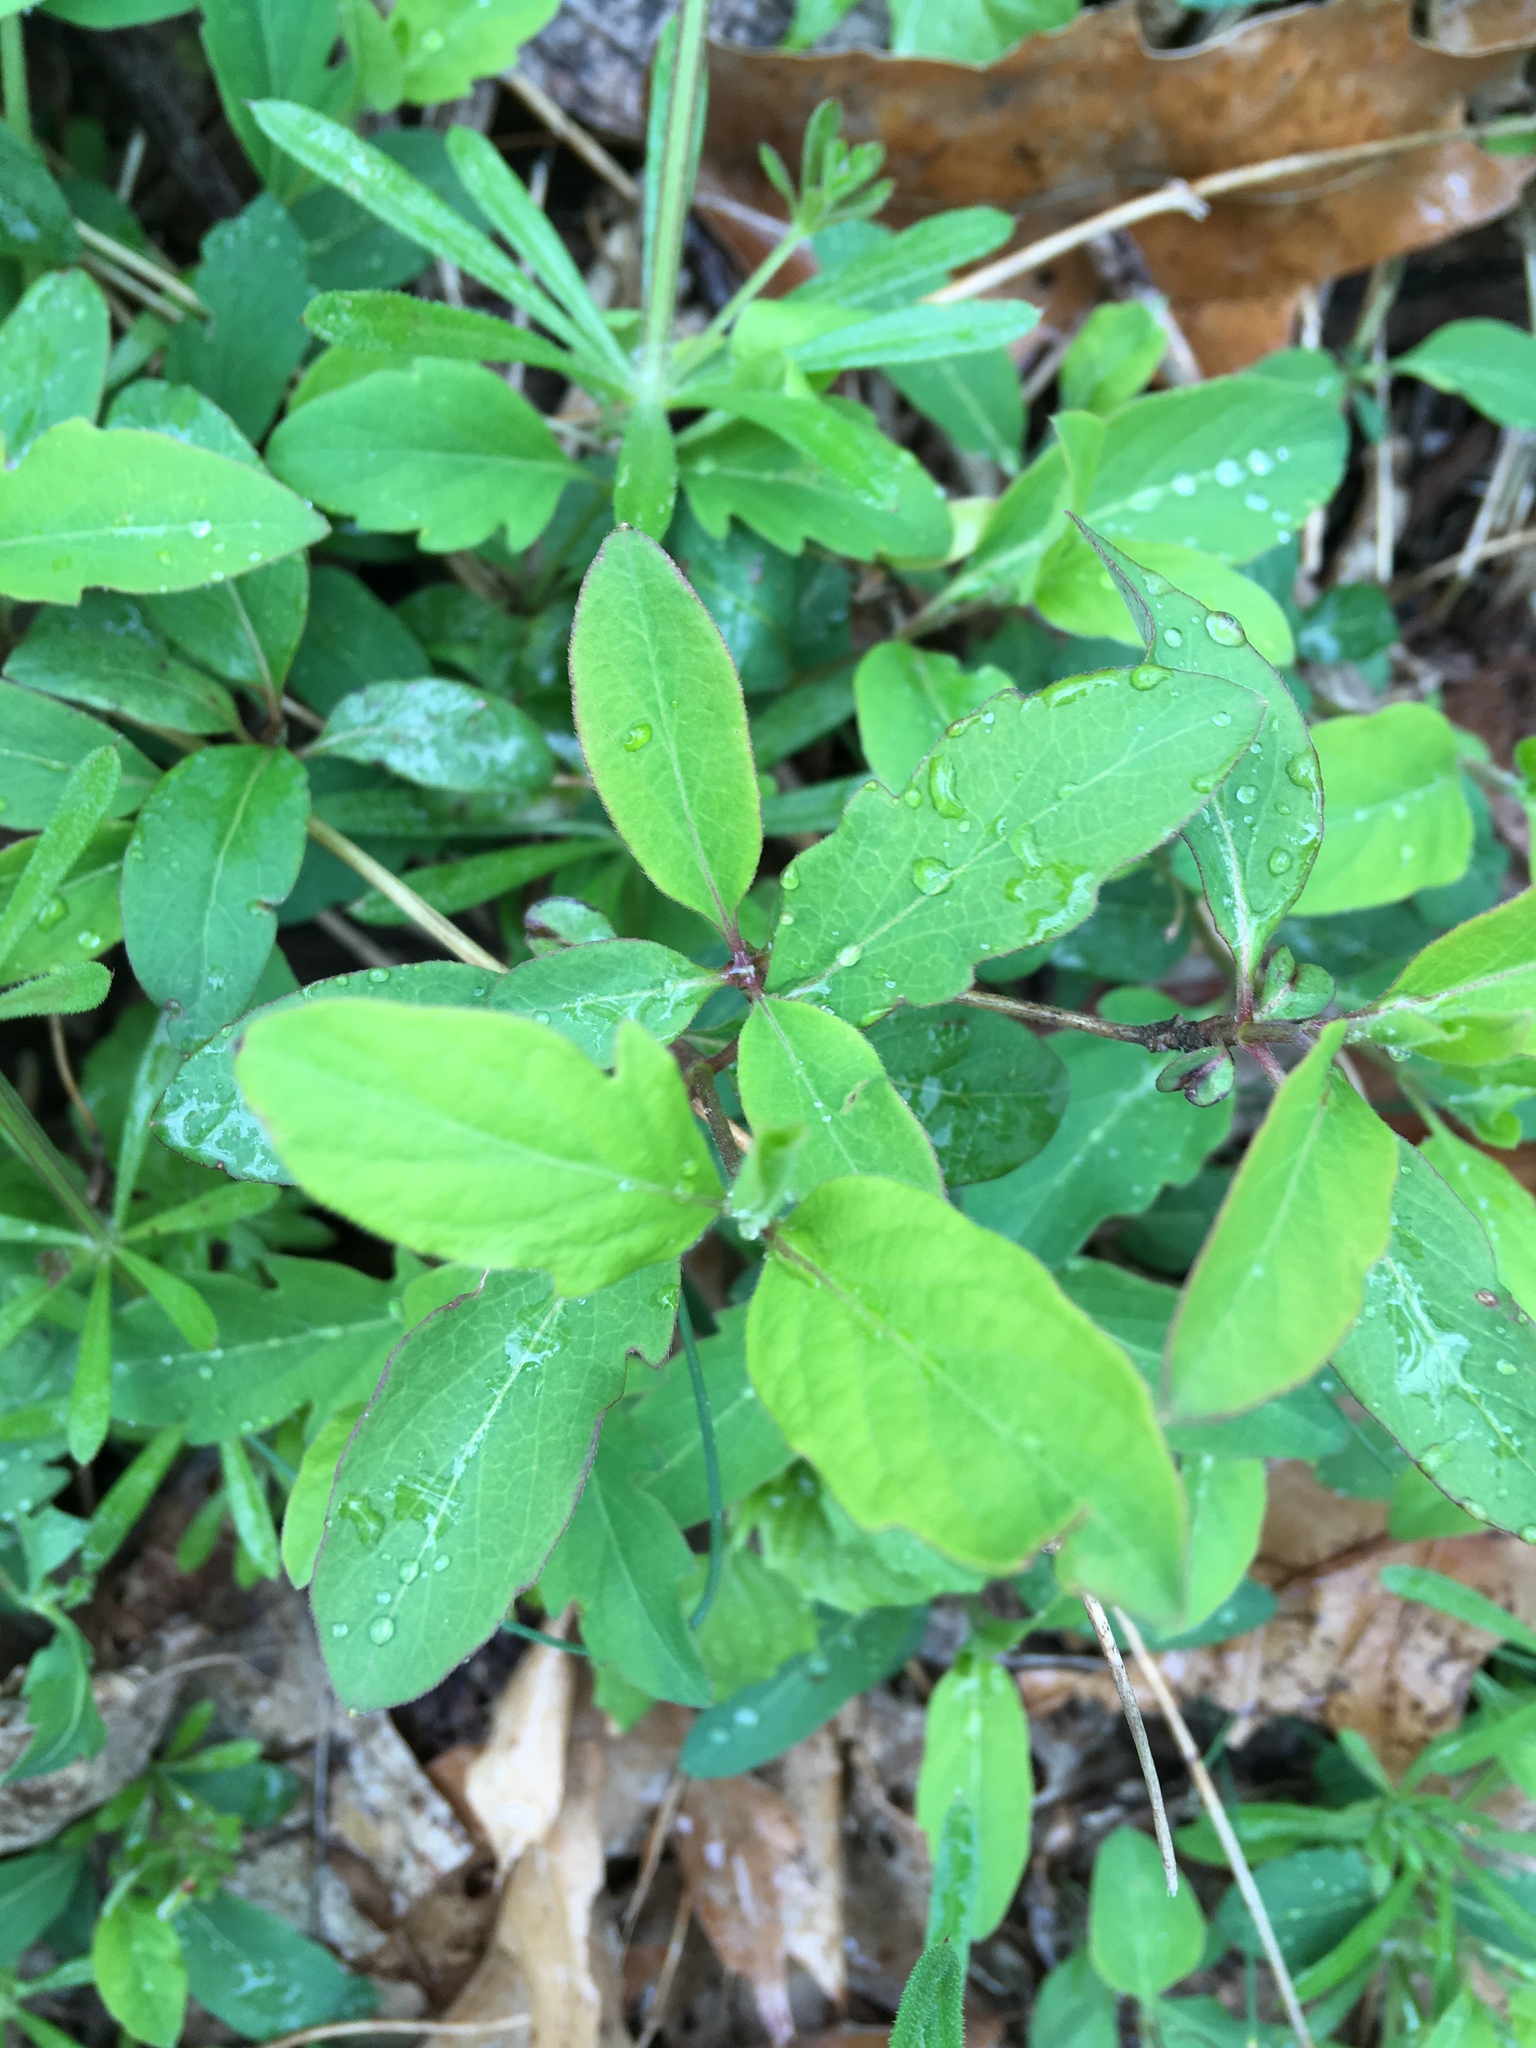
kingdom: Plantae
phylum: Tracheophyta
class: Magnoliopsida
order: Dipsacales
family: Caprifoliaceae
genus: Lonicera
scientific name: Lonicera japonica
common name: Japanese honeysuckle
